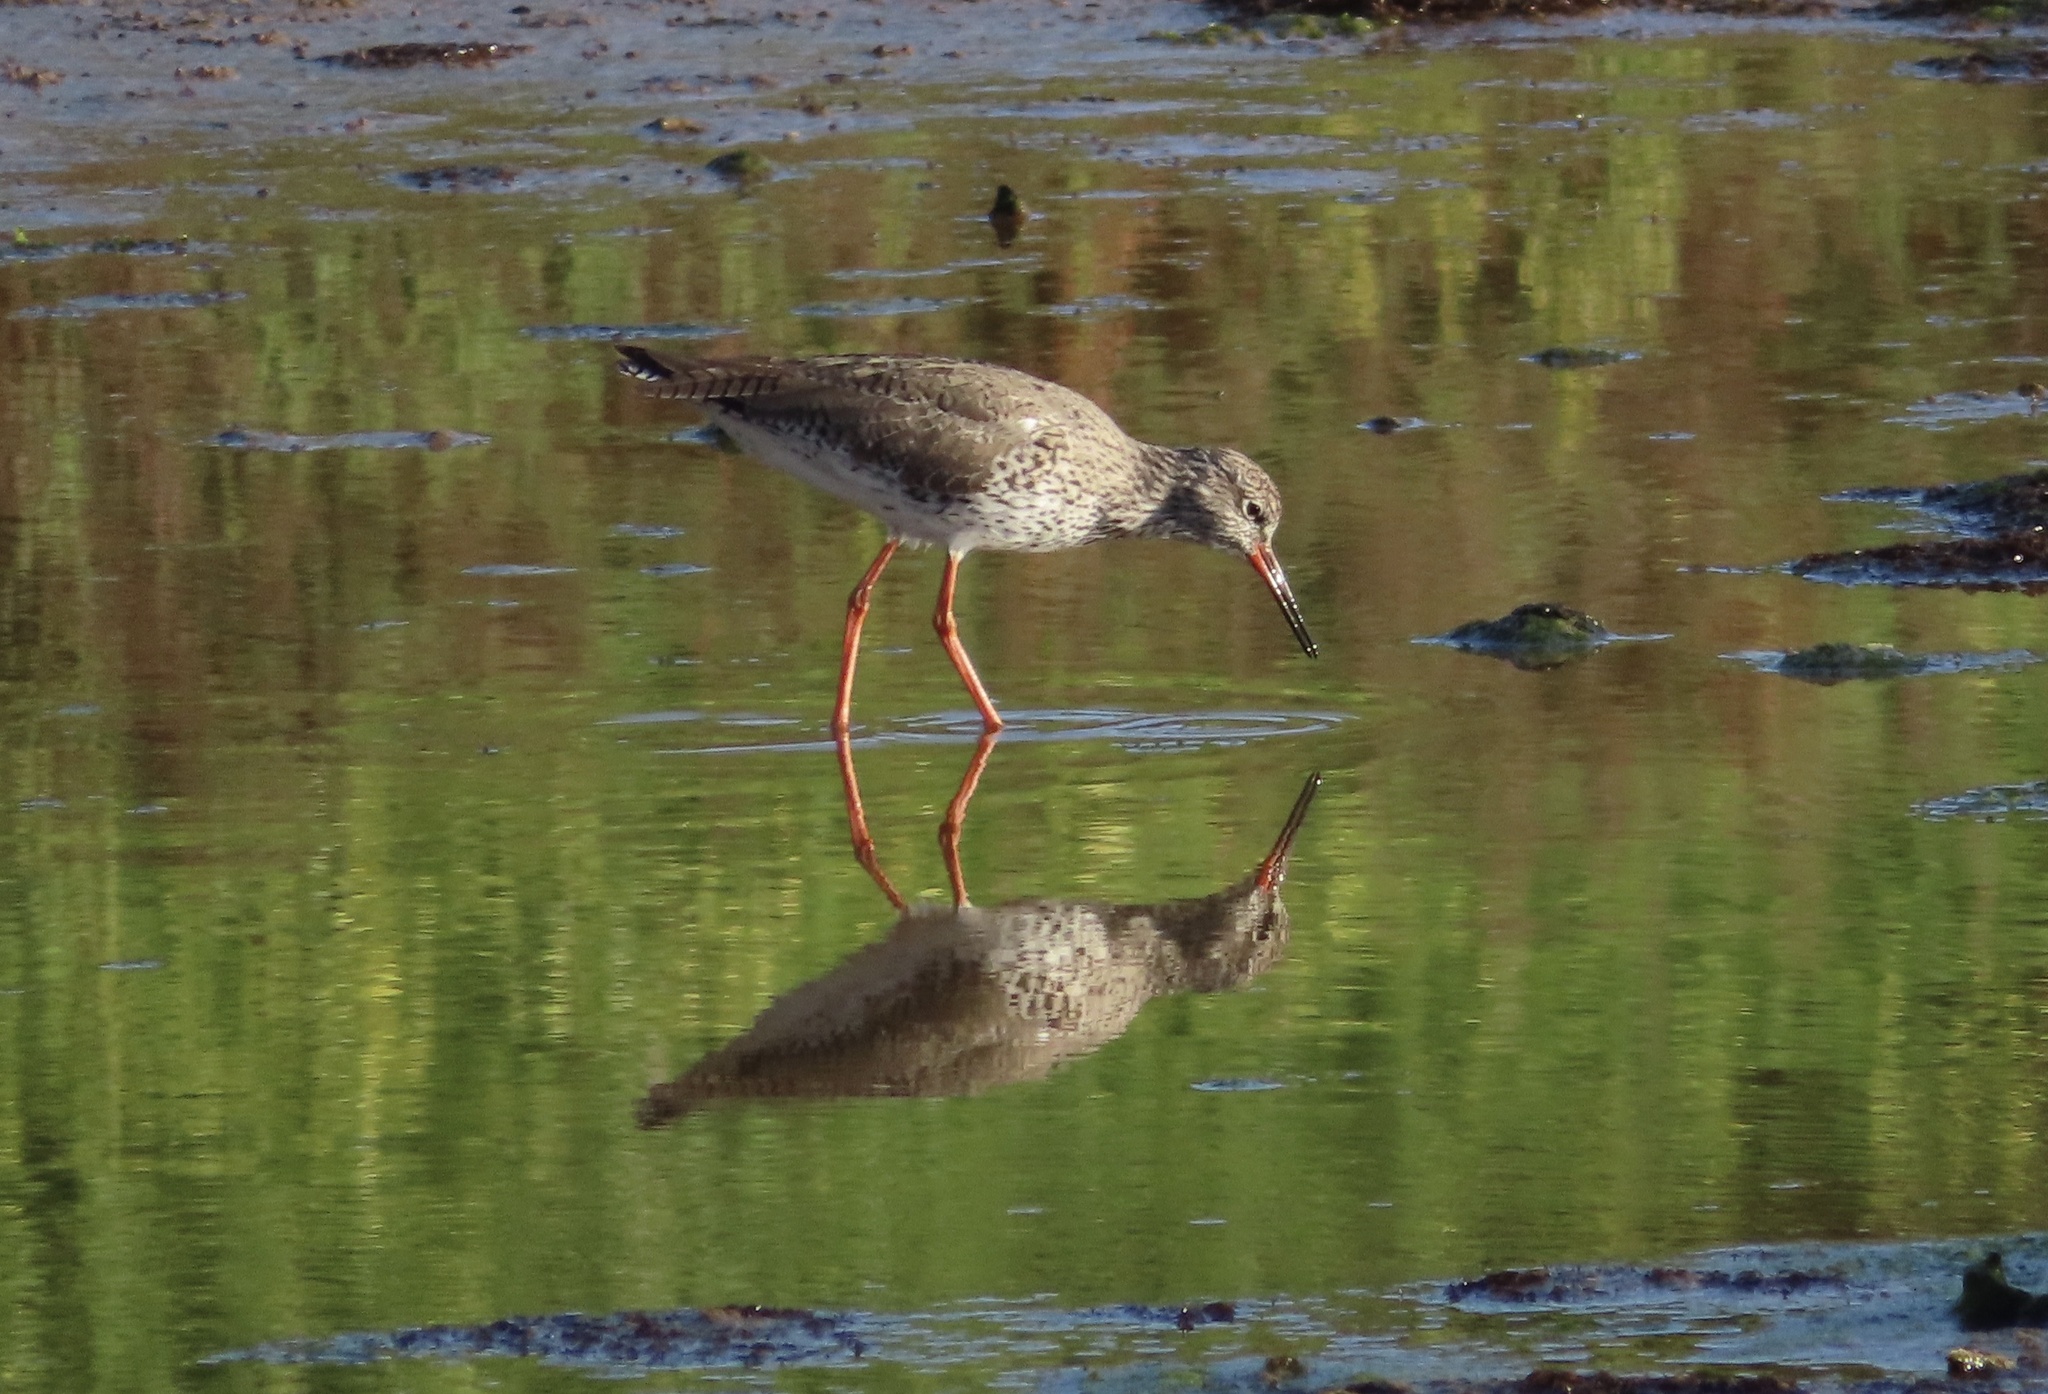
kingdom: Animalia
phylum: Chordata
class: Aves
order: Charadriiformes
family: Scolopacidae
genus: Tringa
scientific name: Tringa totanus
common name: Common redshank
